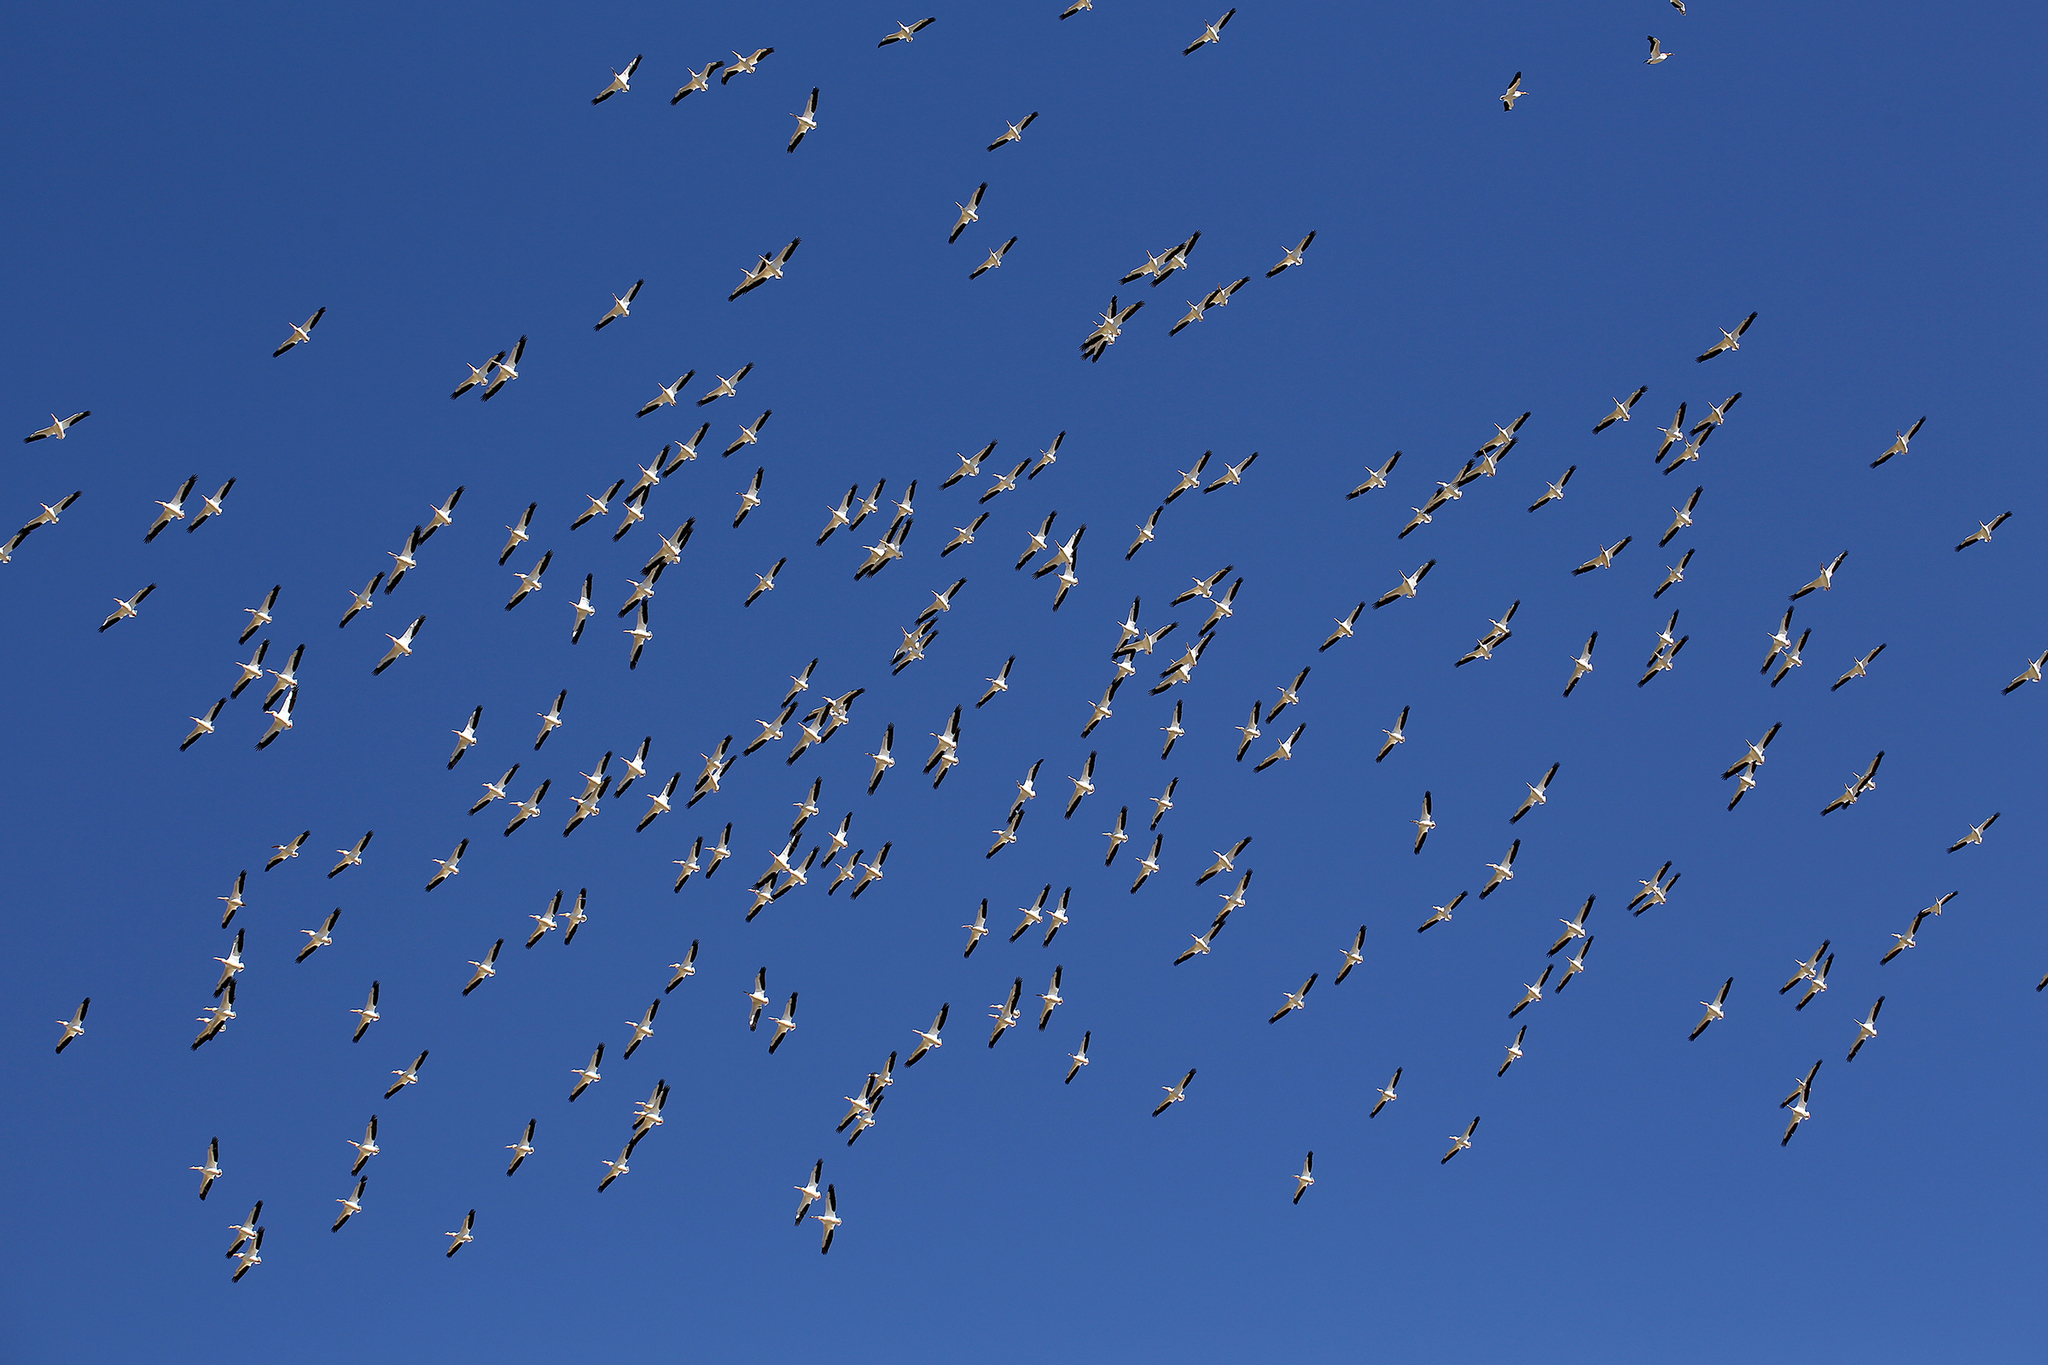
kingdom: Animalia
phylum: Chordata
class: Aves
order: Pelecaniformes
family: Pelecanidae
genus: Pelecanus
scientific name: Pelecanus erythrorhynchos
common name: American white pelican
